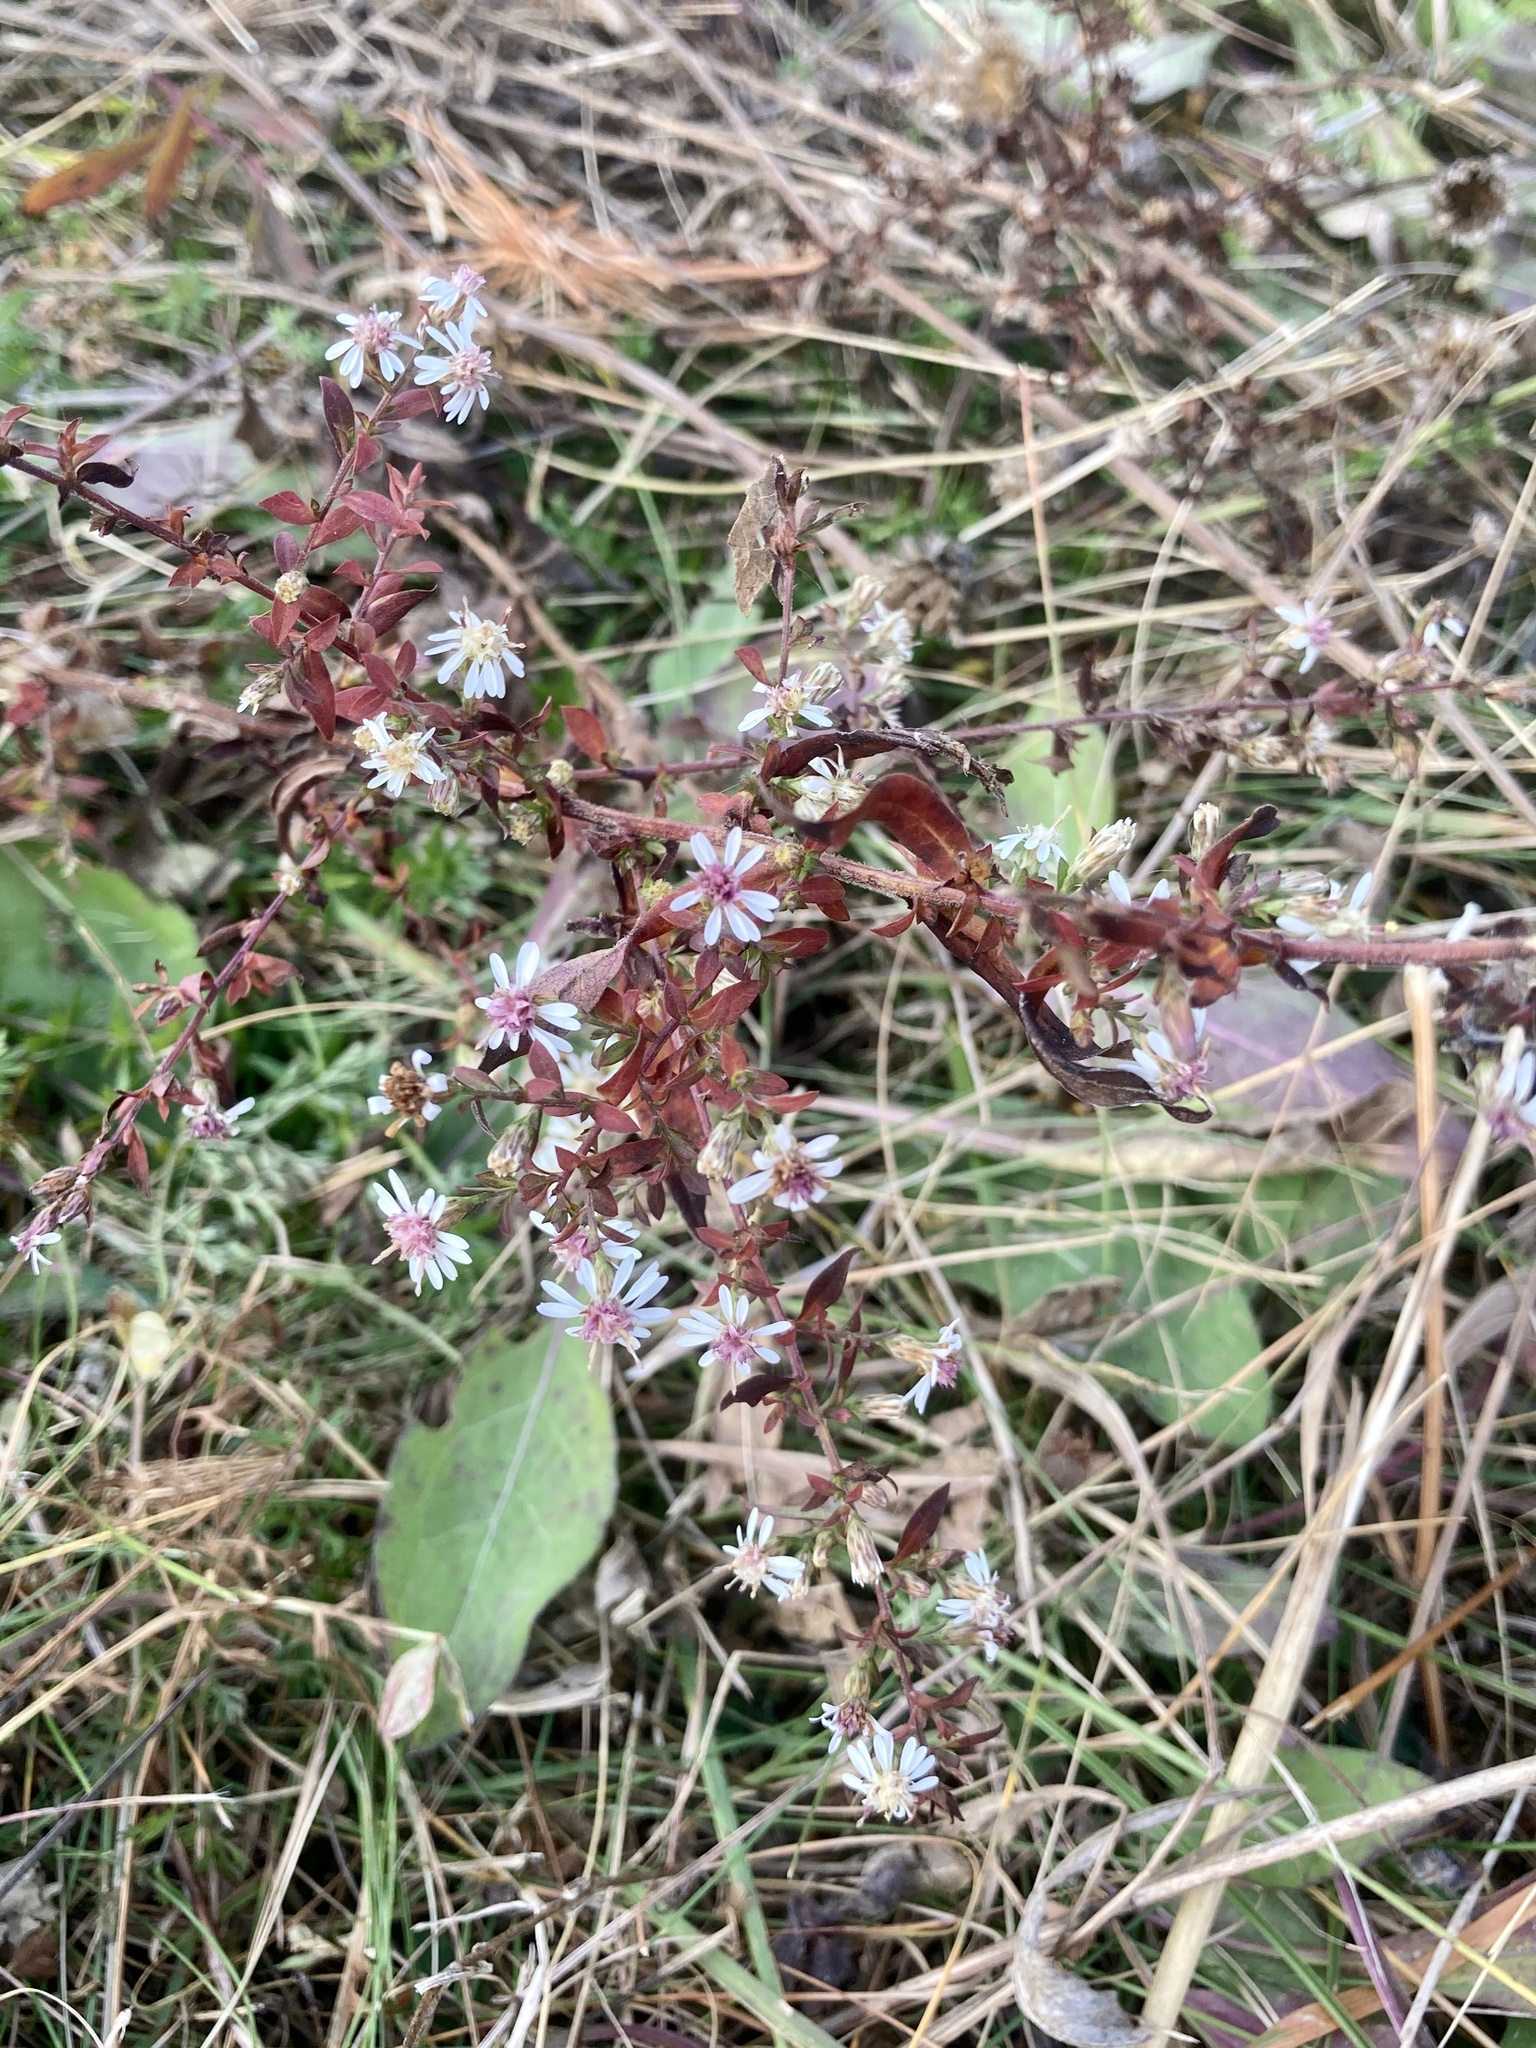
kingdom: Plantae
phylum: Tracheophyta
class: Magnoliopsida
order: Asterales
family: Asteraceae
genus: Symphyotrichum
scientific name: Symphyotrichum lateriflorum
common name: Calico aster
